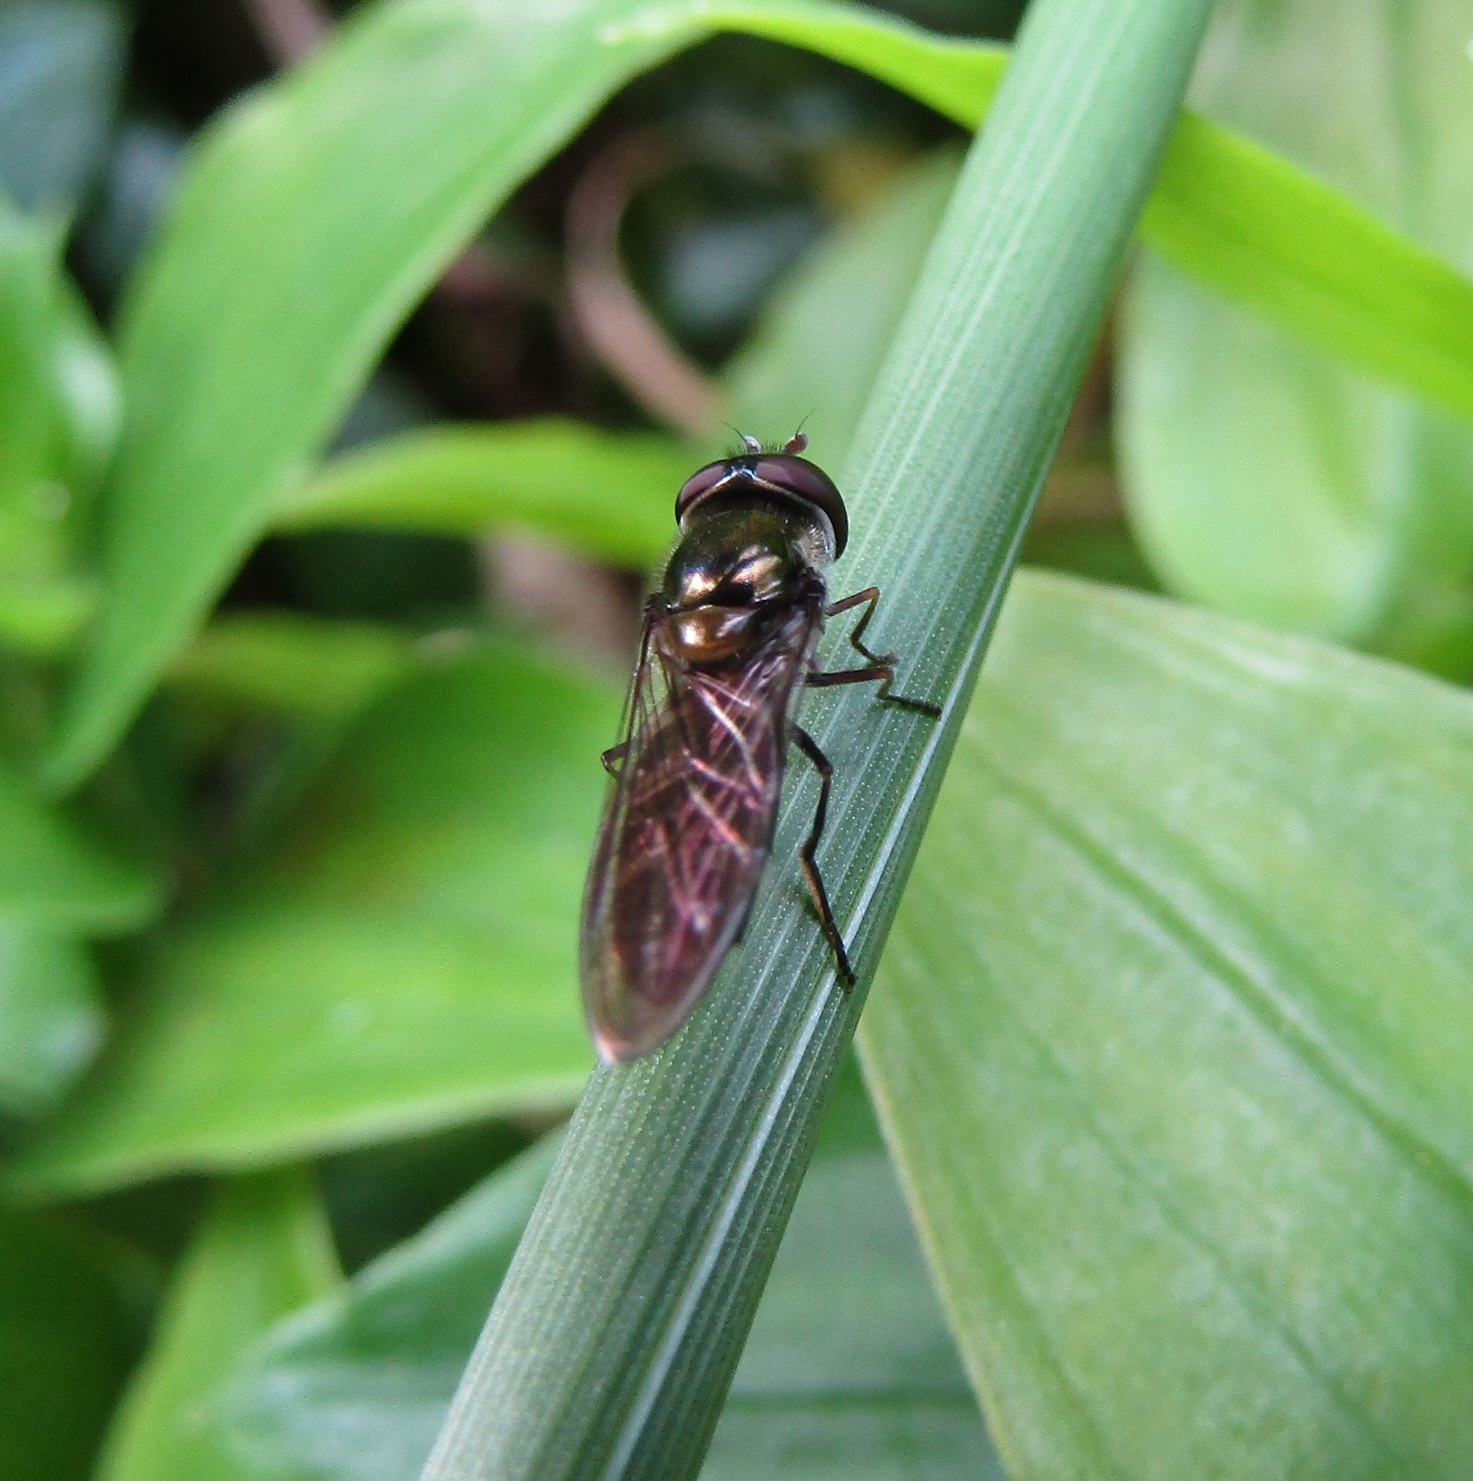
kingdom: Animalia
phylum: Arthropoda
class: Insecta
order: Diptera
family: Syrphidae
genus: Melangyna
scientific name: Melangyna novaezelandiae
